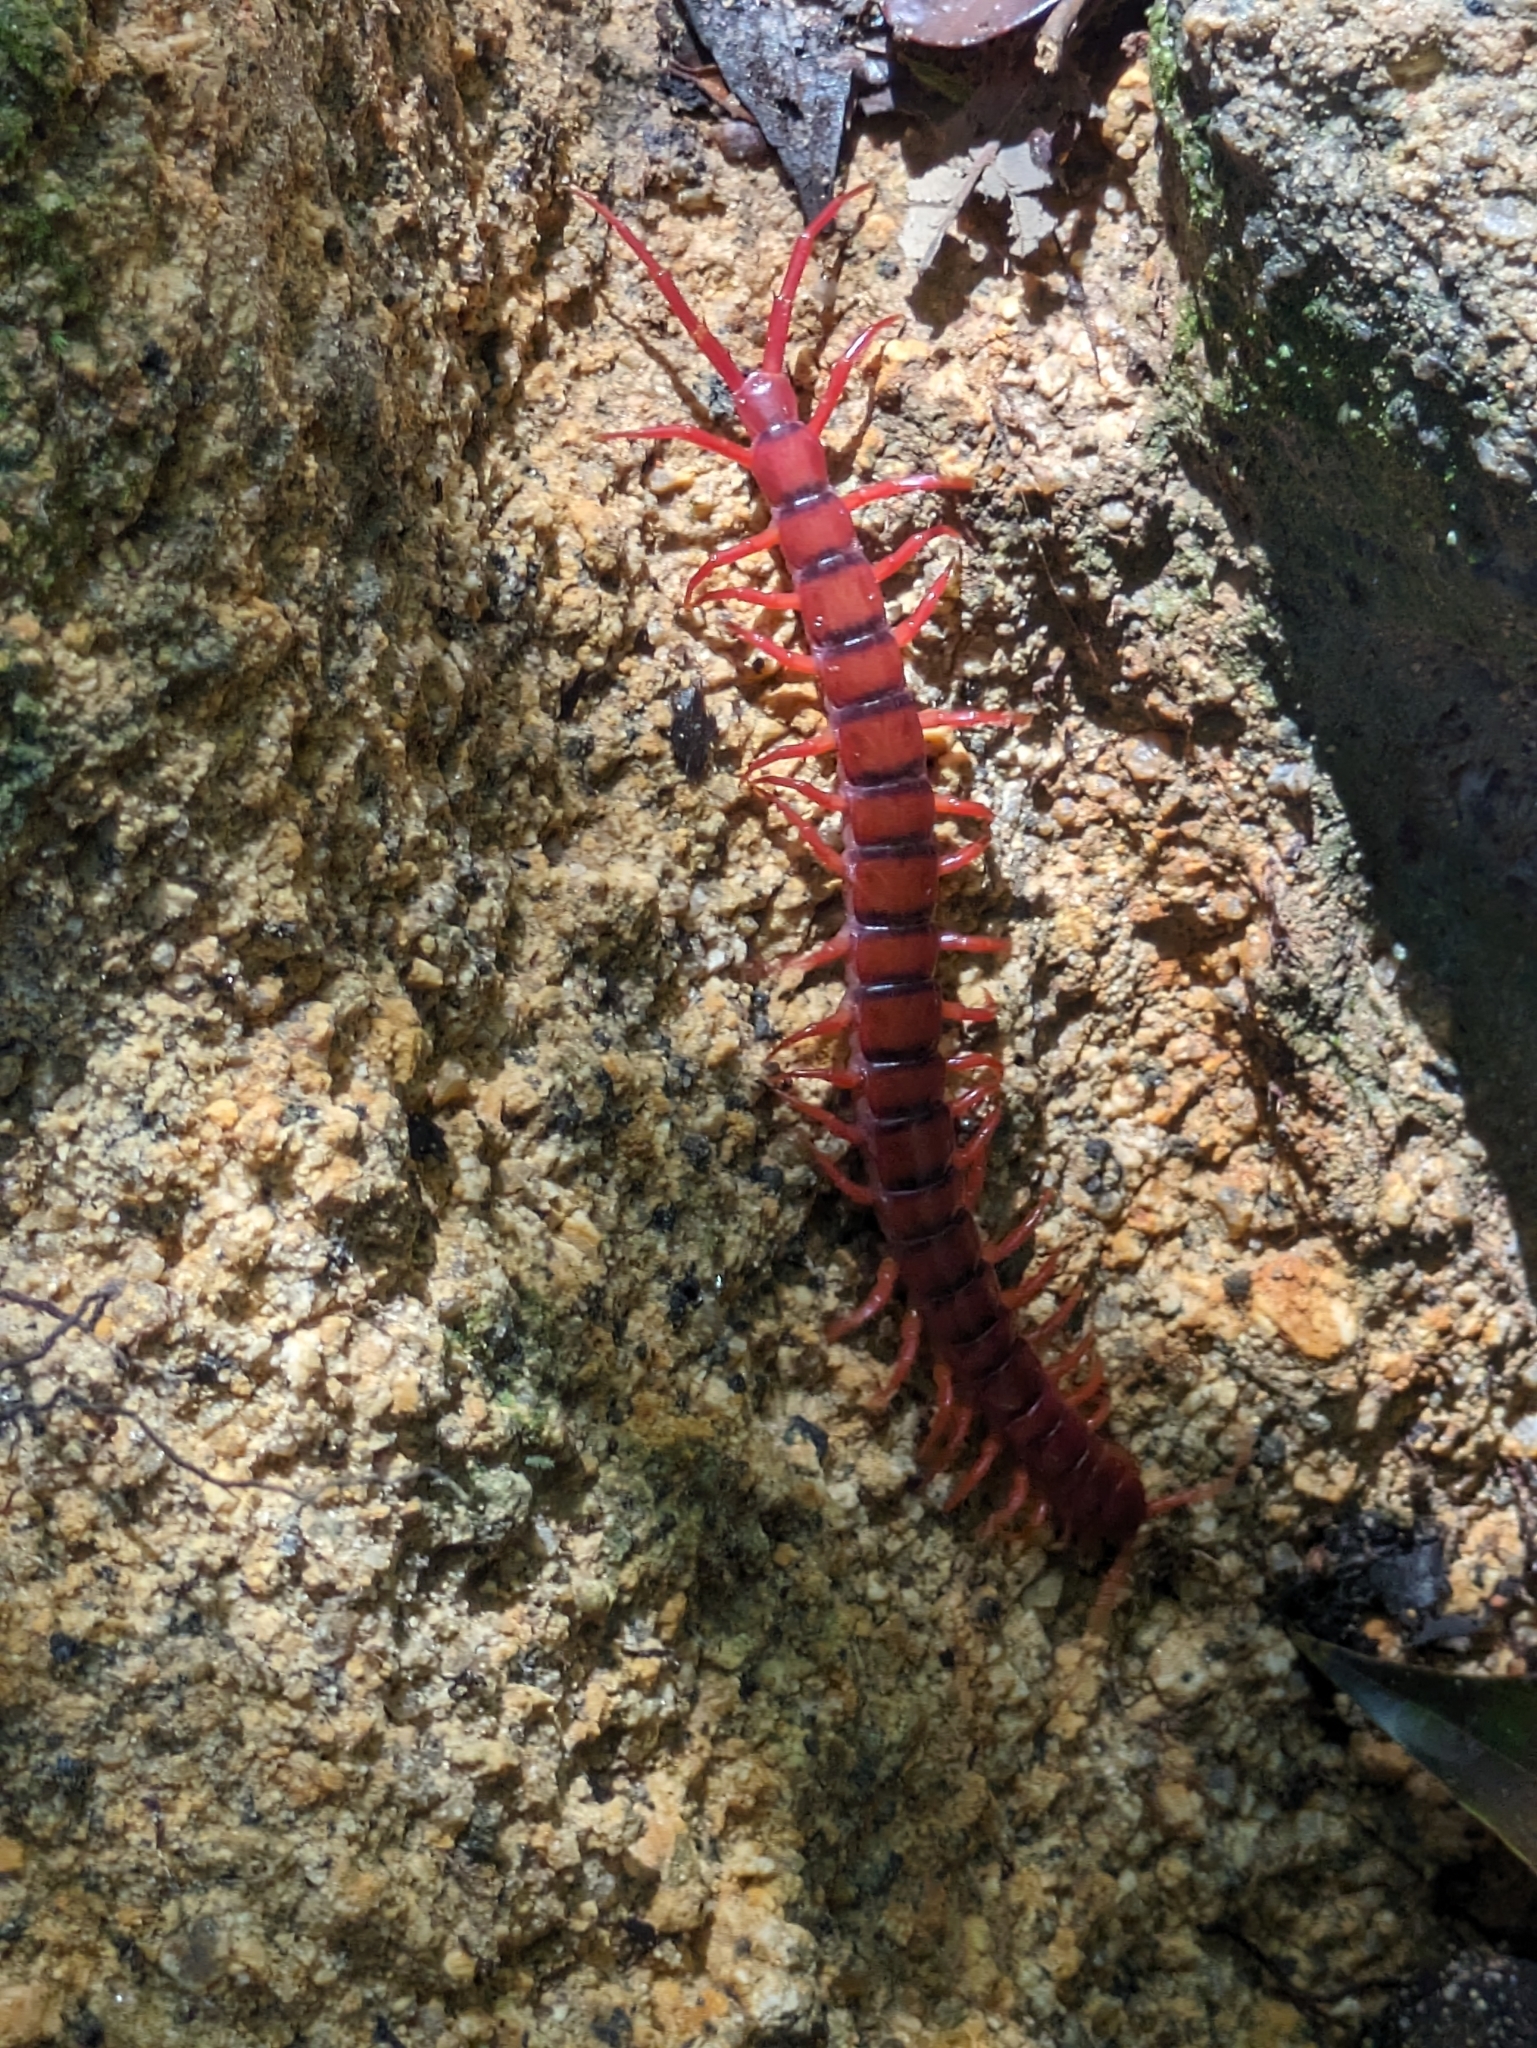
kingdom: Animalia
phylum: Arthropoda
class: Chilopoda
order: Scolopendromorpha
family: Scolopendridae
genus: Scolopendra
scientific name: Scolopendra dehaani
